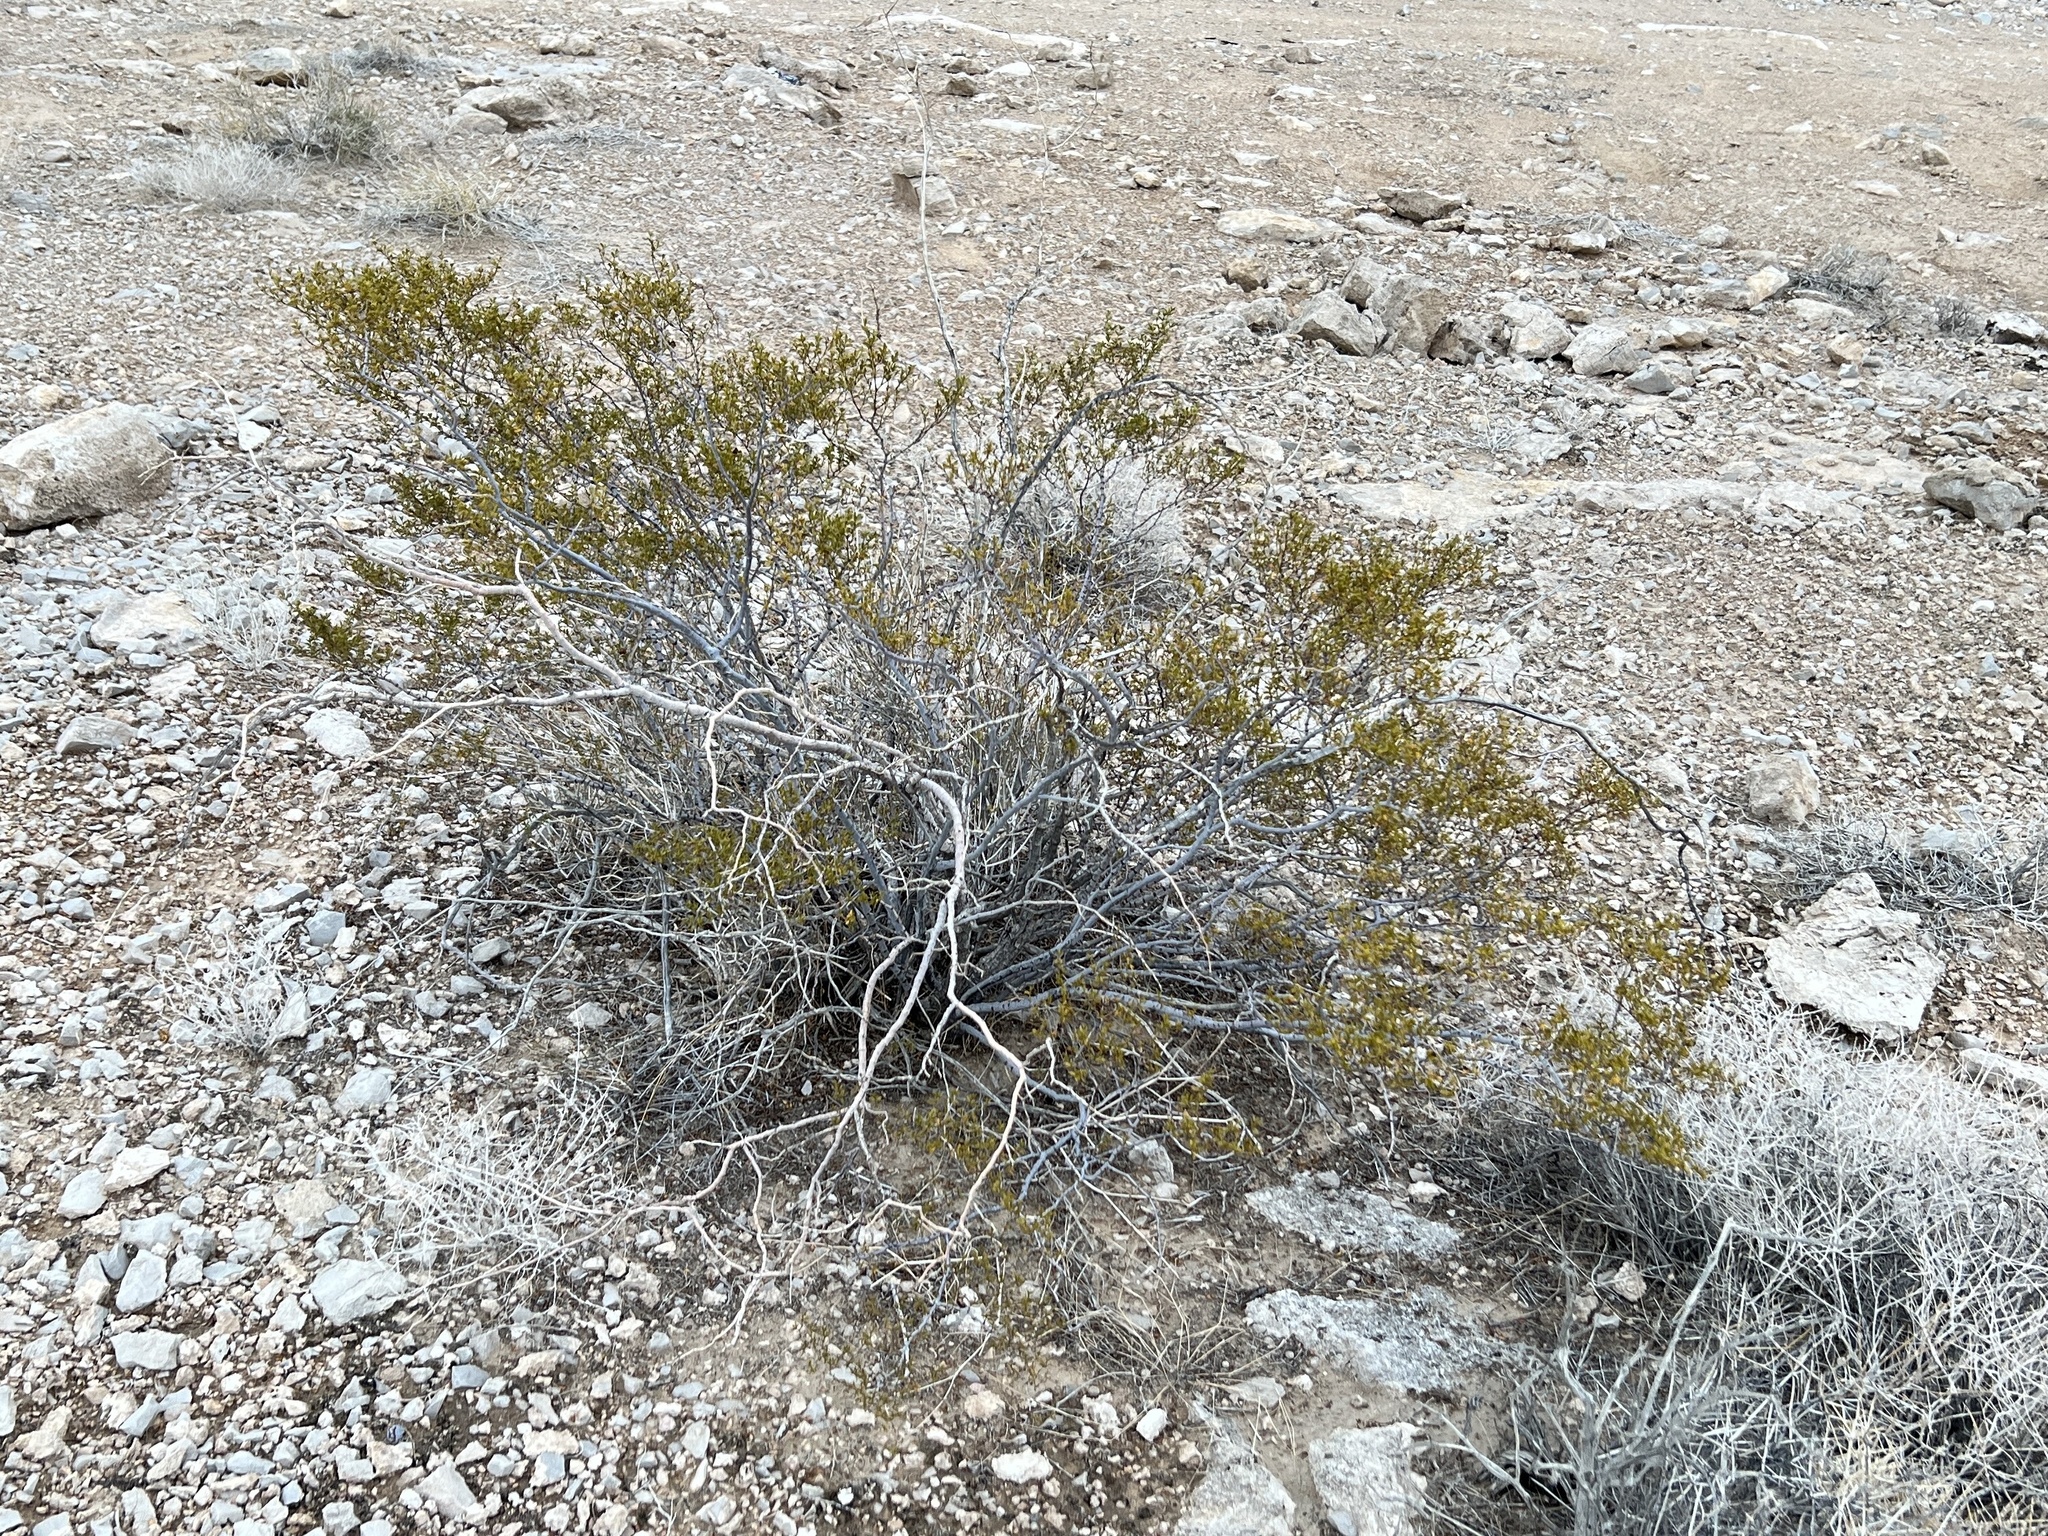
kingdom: Plantae
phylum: Tracheophyta
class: Magnoliopsida
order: Zygophyllales
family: Zygophyllaceae
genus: Larrea
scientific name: Larrea tridentata
